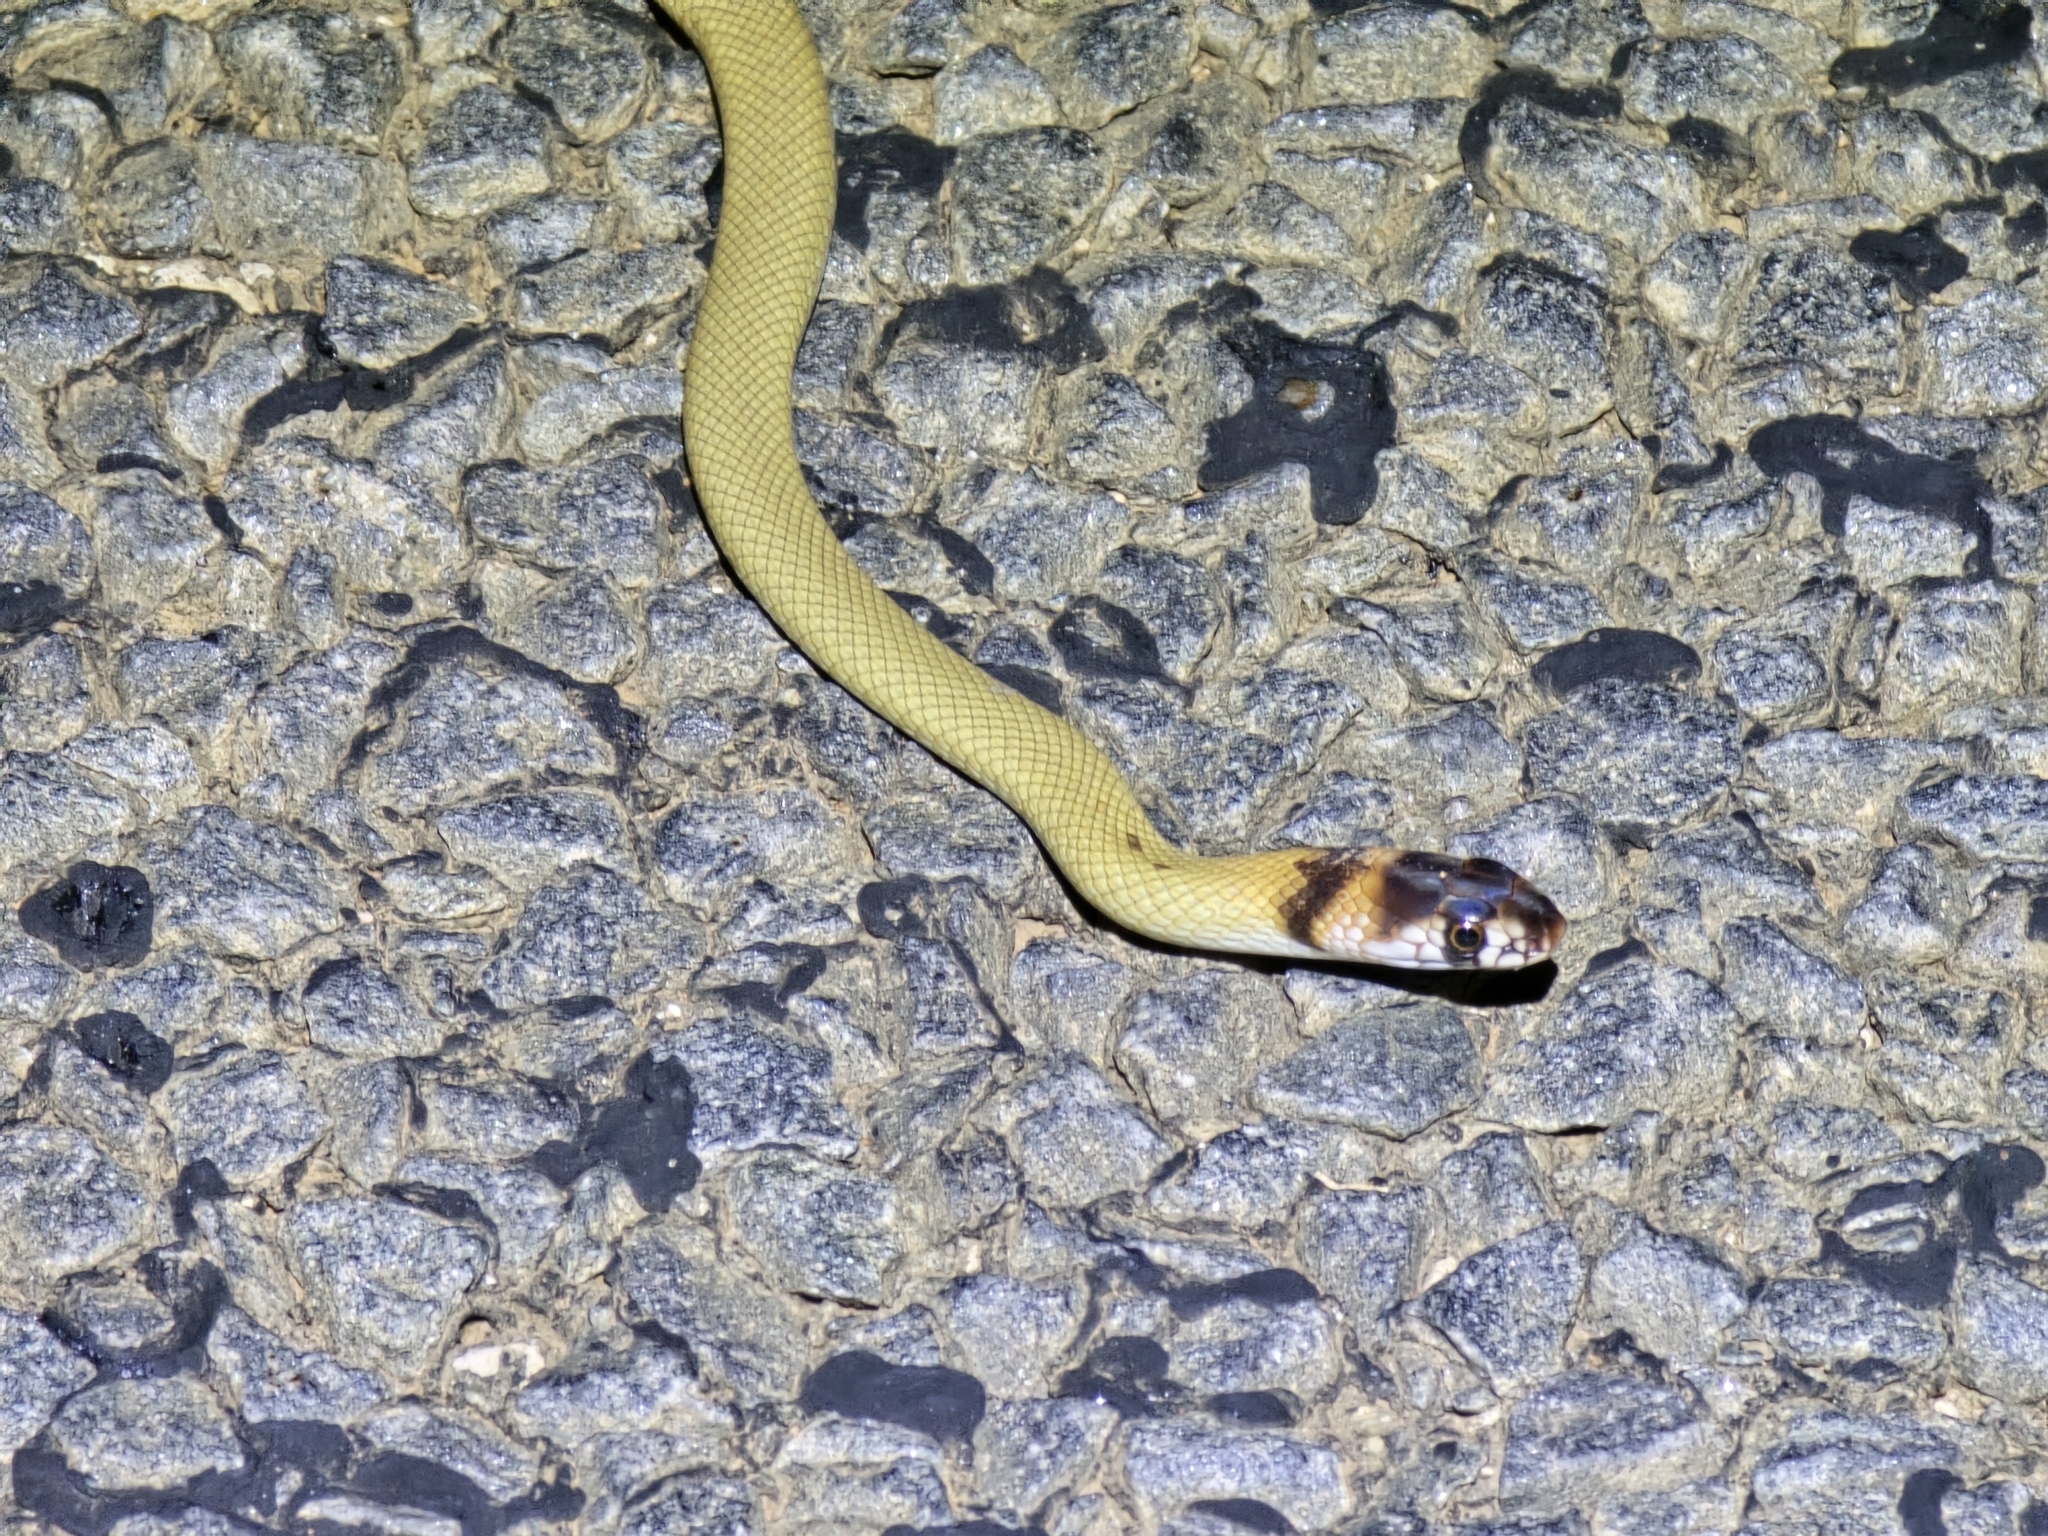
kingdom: Animalia
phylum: Chordata
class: Squamata
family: Elapidae
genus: Pseudonaja
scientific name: Pseudonaja aspidorhyncha
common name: Strap-snouted brown snake
